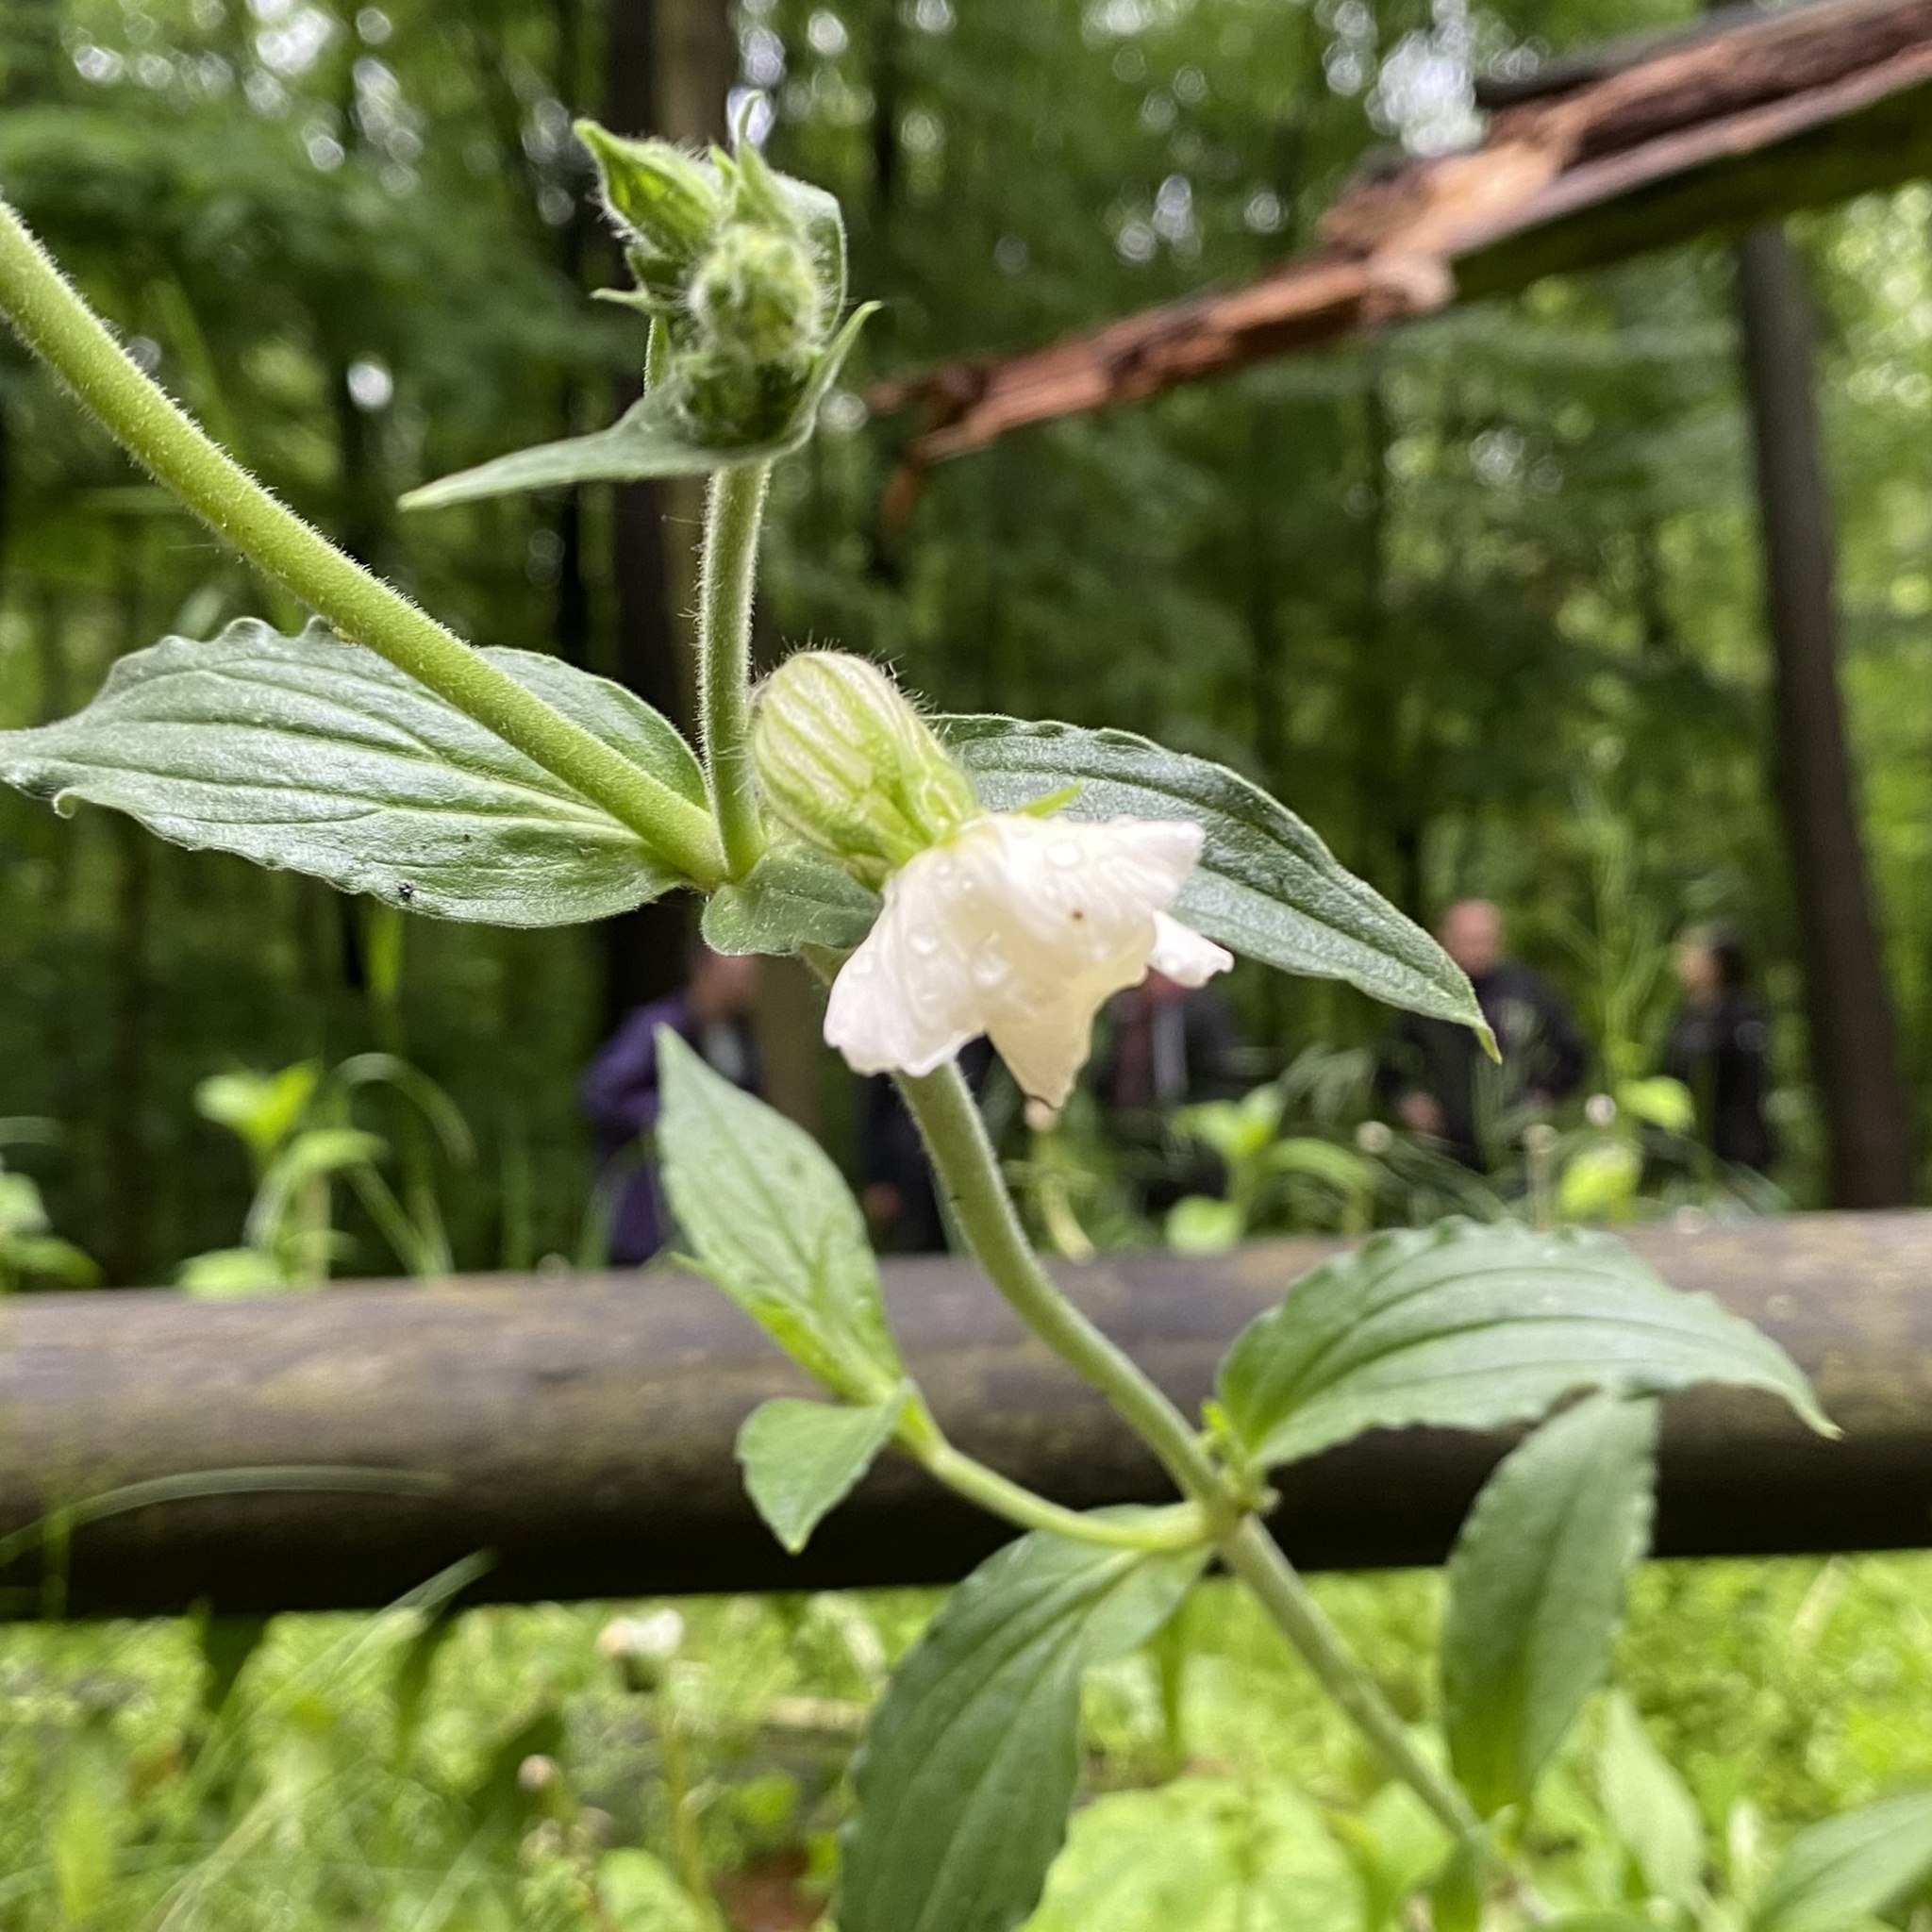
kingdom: Plantae
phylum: Tracheophyta
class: Magnoliopsida
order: Caryophyllales
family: Caryophyllaceae
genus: Silene
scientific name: Silene latifolia
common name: White campion
